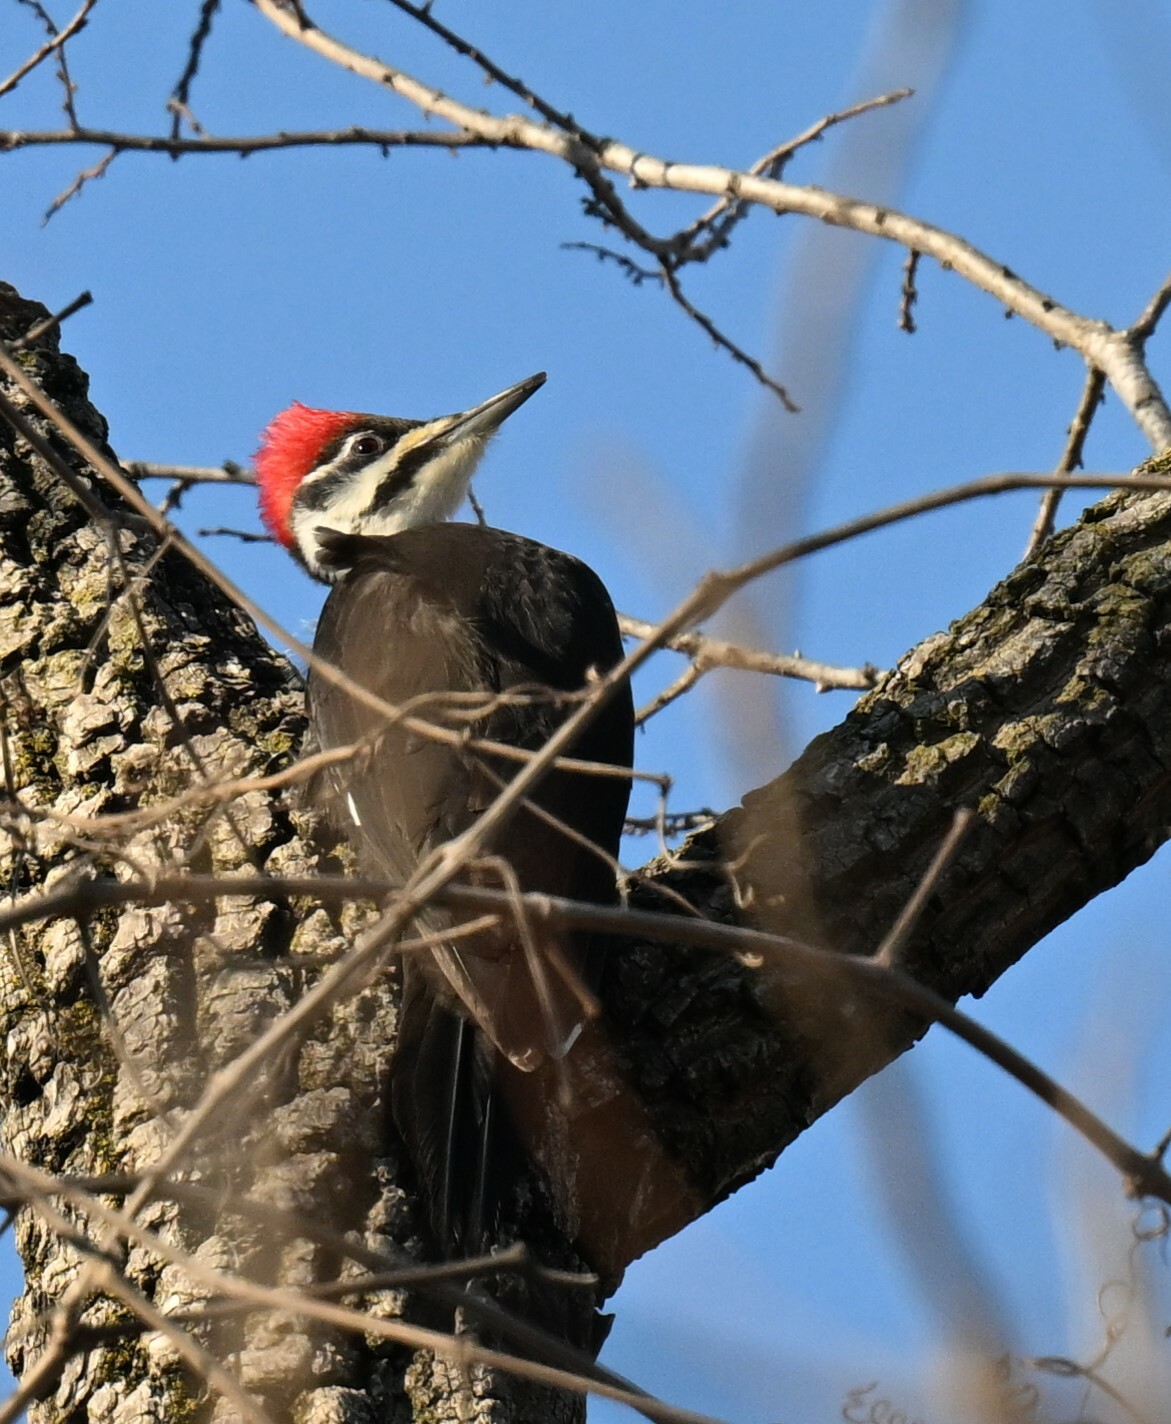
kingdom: Animalia
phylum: Chordata
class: Aves
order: Piciformes
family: Picidae
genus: Dryocopus
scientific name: Dryocopus pileatus
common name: Pileated woodpecker
